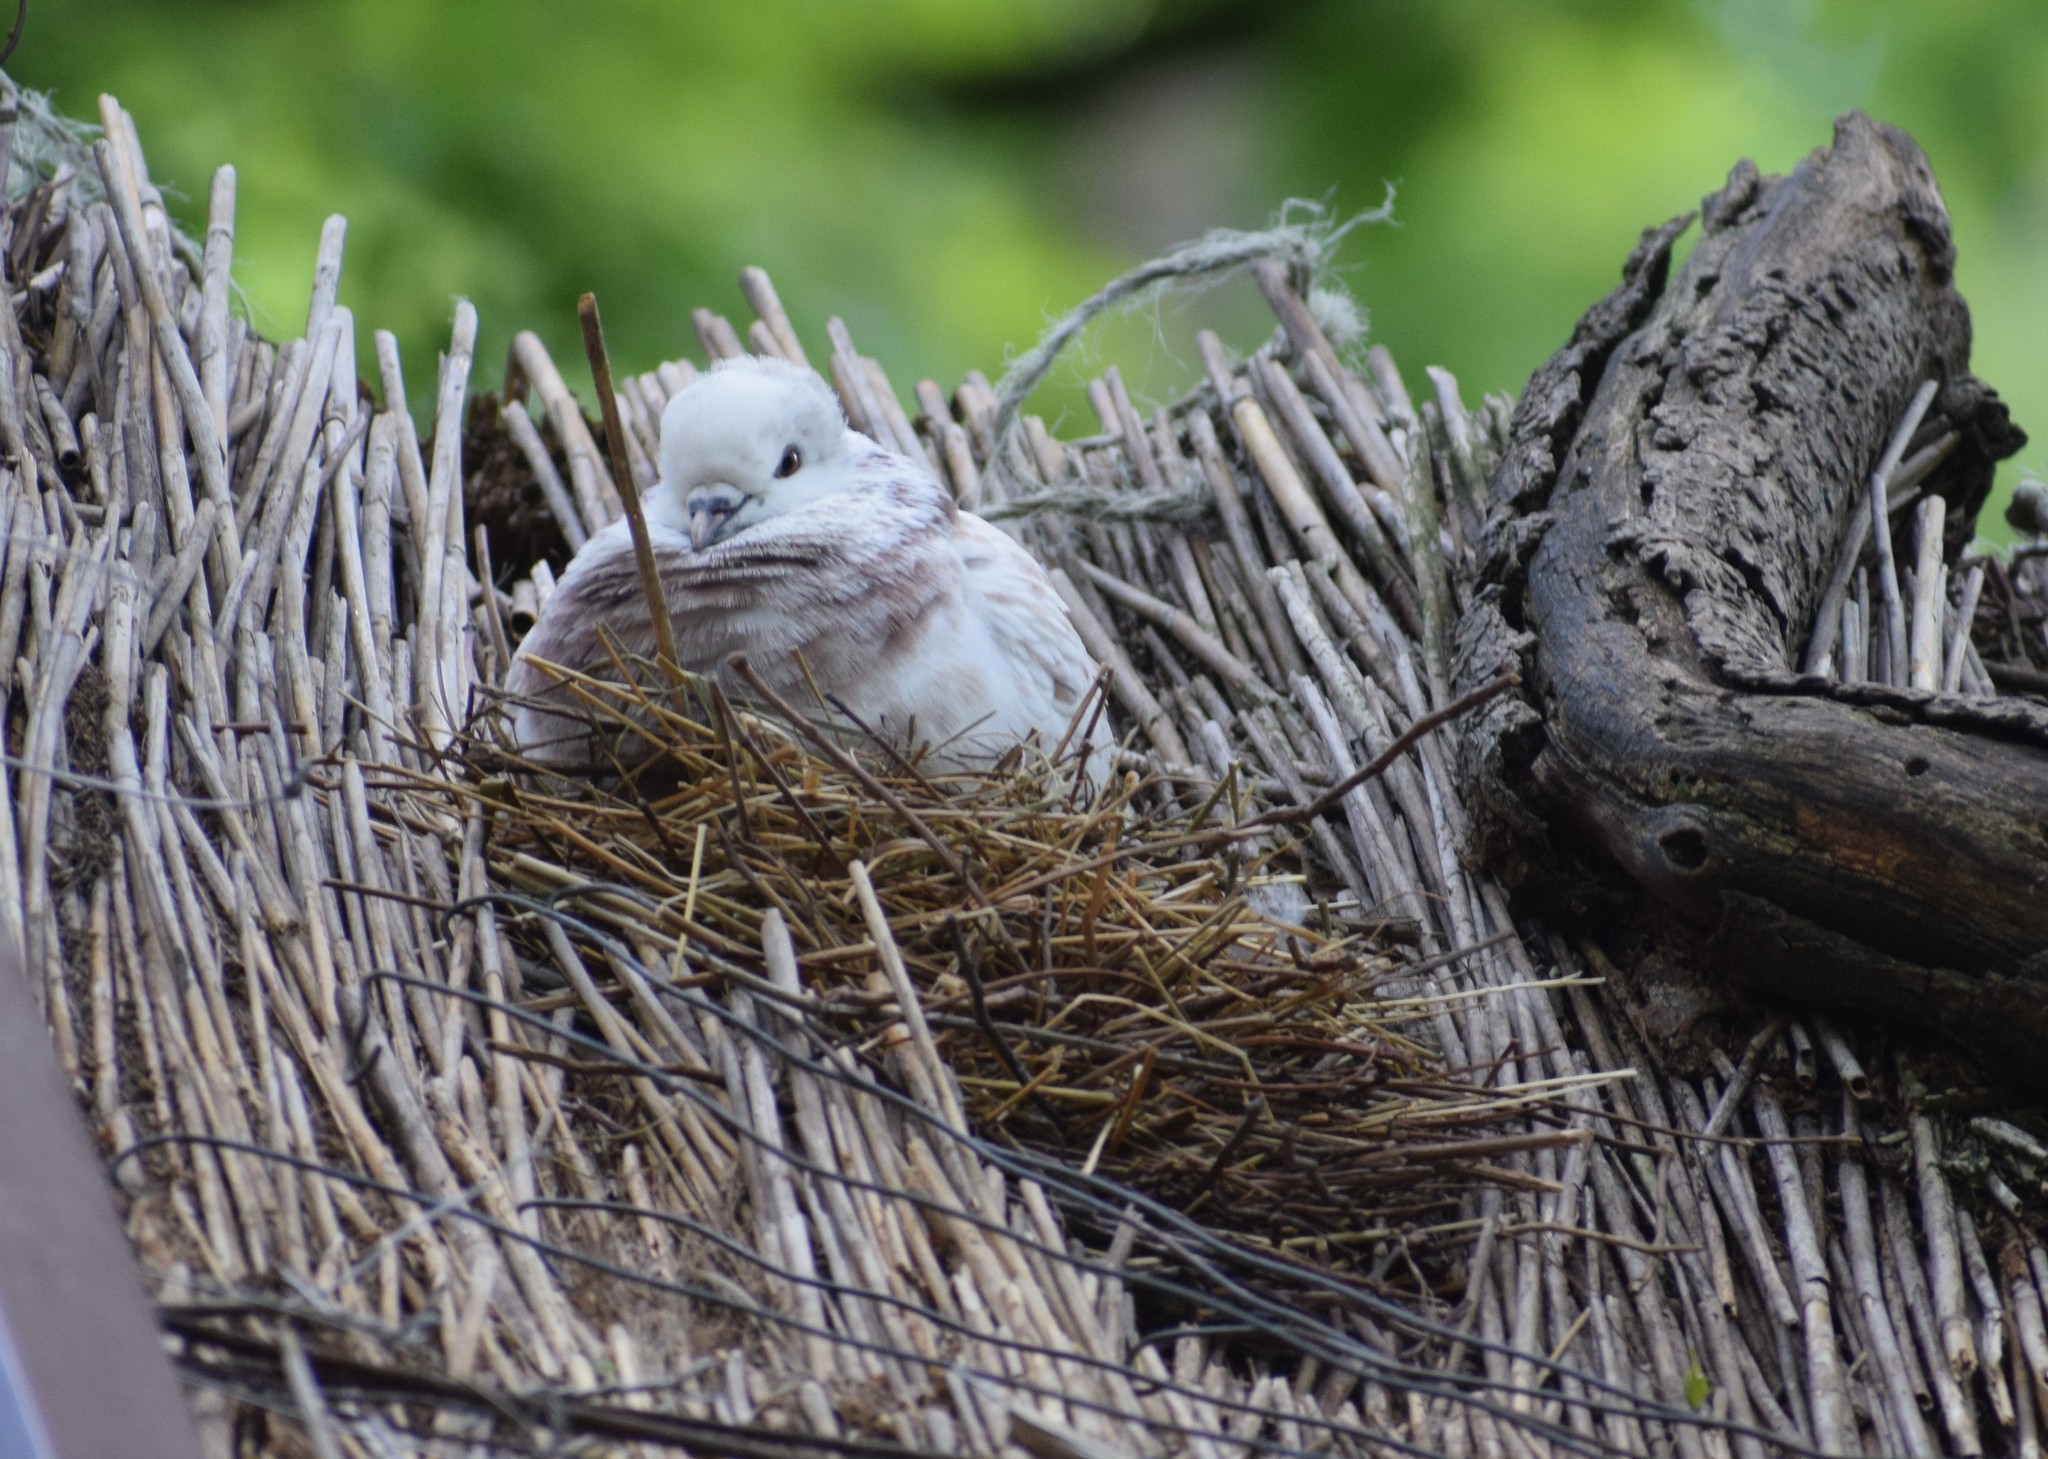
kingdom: Animalia
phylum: Chordata
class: Aves
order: Columbiformes
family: Columbidae
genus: Columba
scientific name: Columba livia
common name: Rock pigeon
